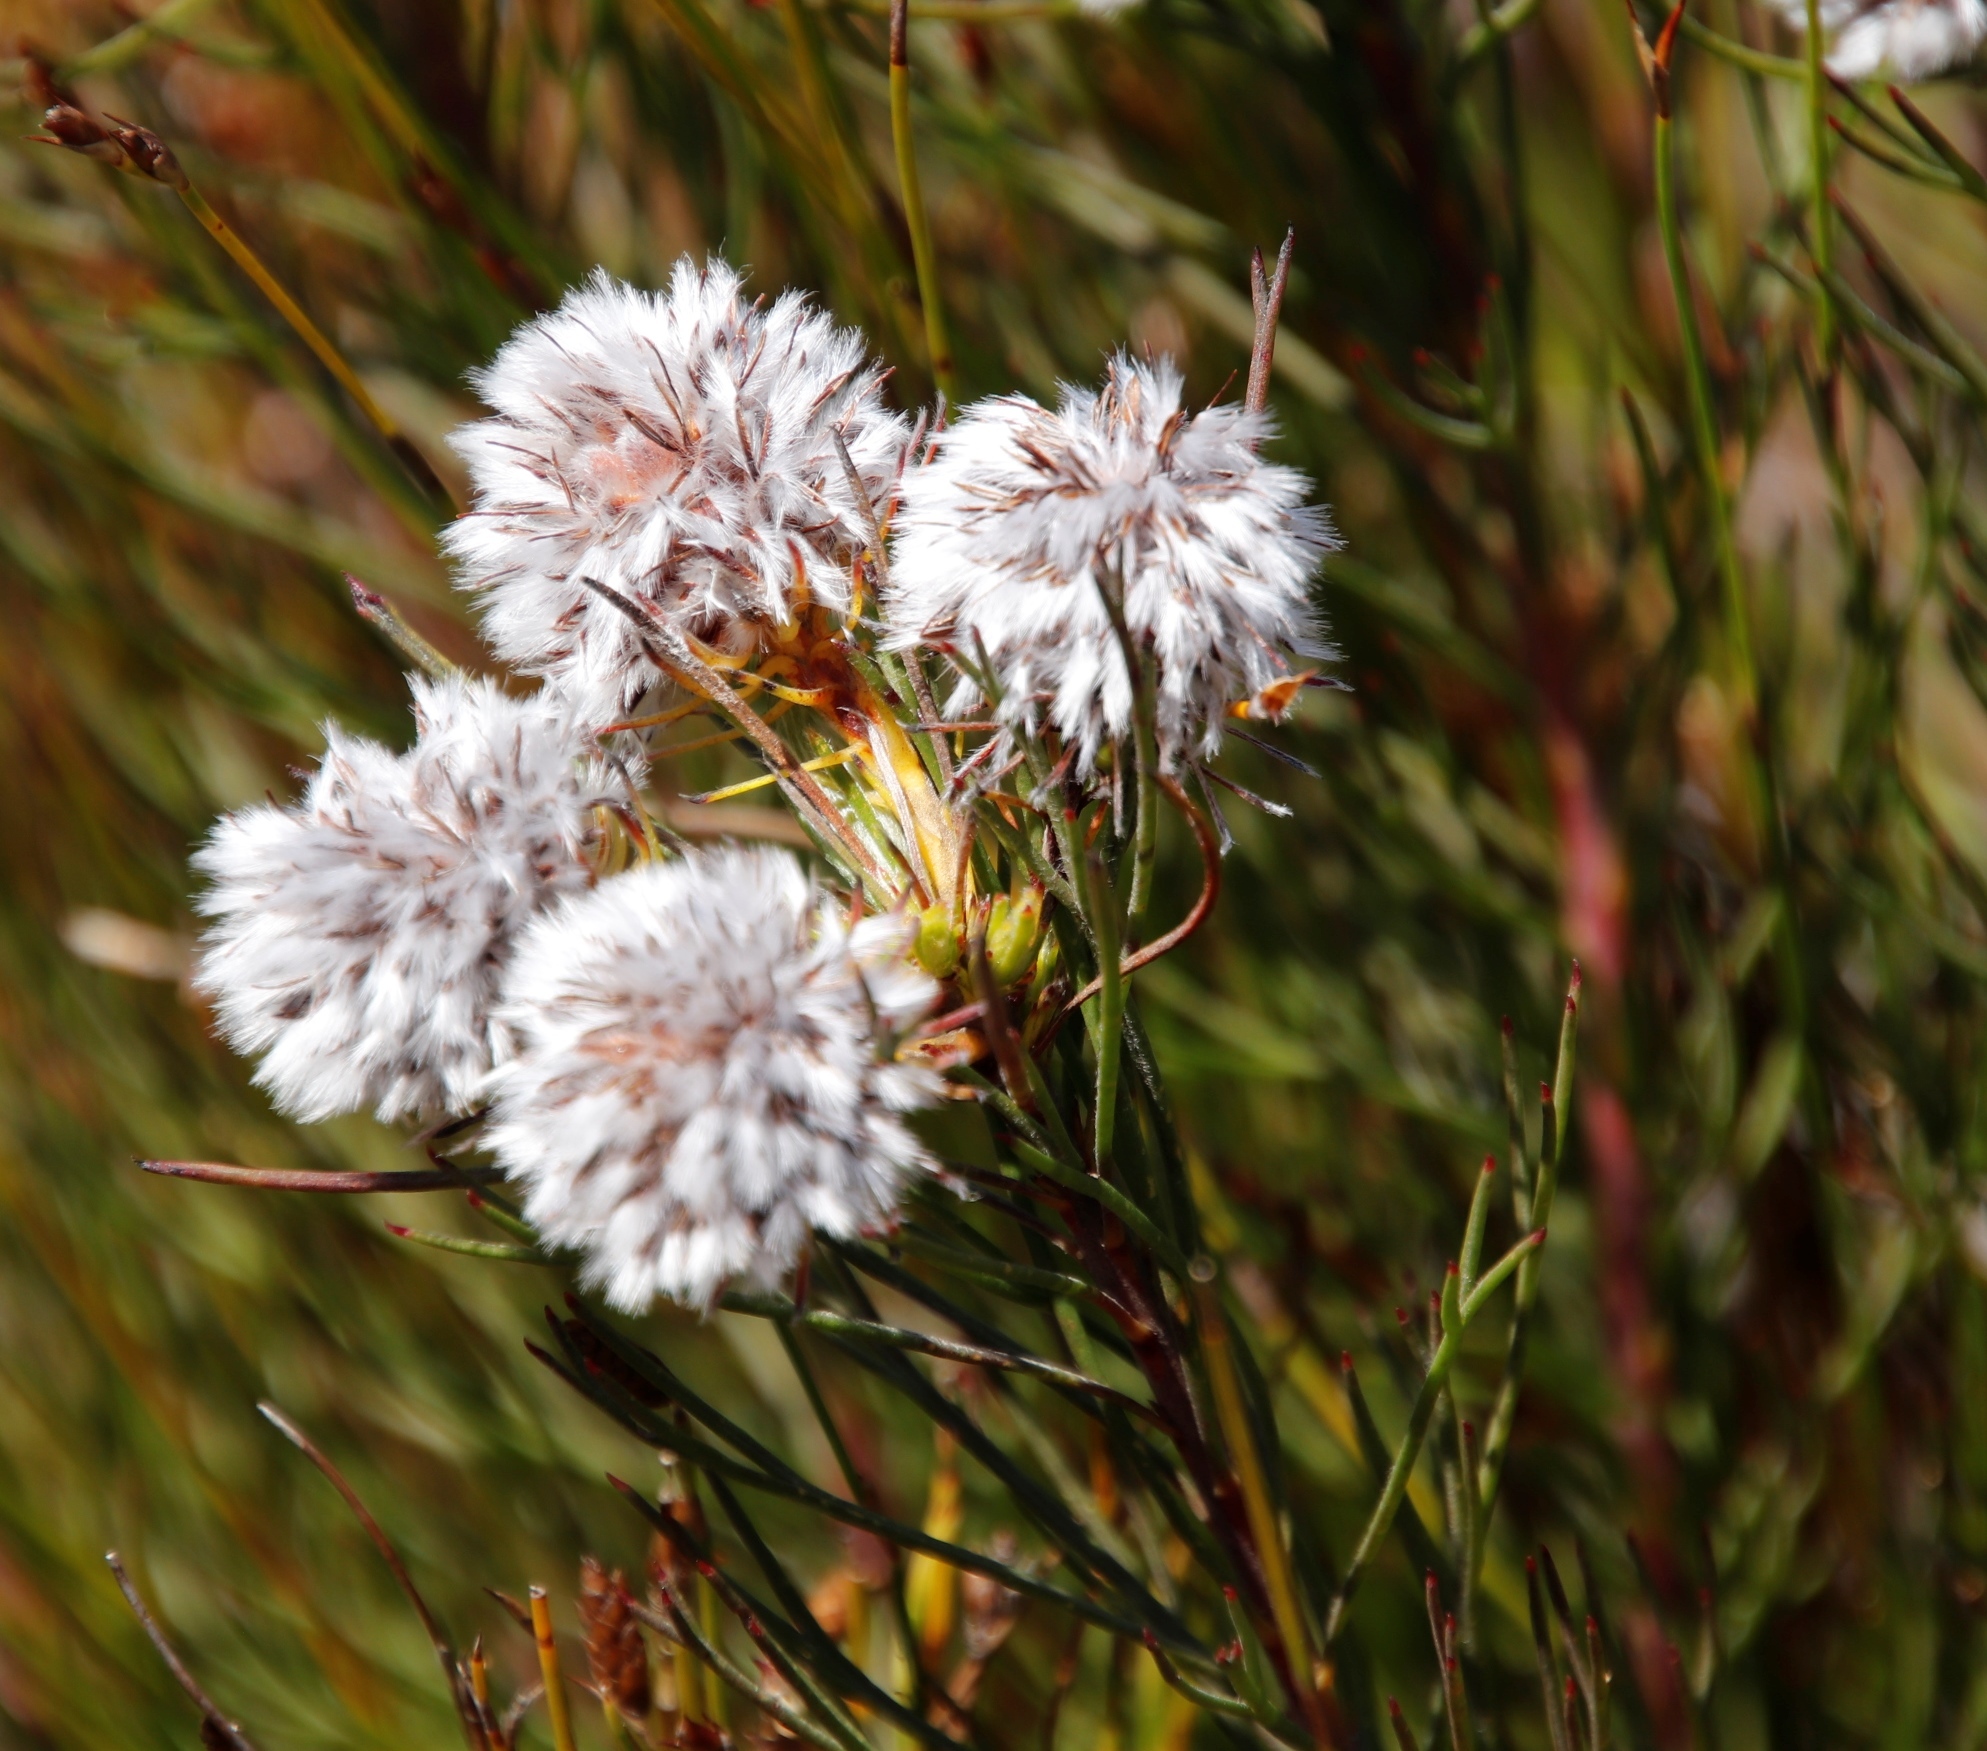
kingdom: Plantae
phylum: Tracheophyta
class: Magnoliopsida
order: Proteales
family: Proteaceae
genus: Serruria
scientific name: Serruria phylicoides
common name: Bearded spiderhead
